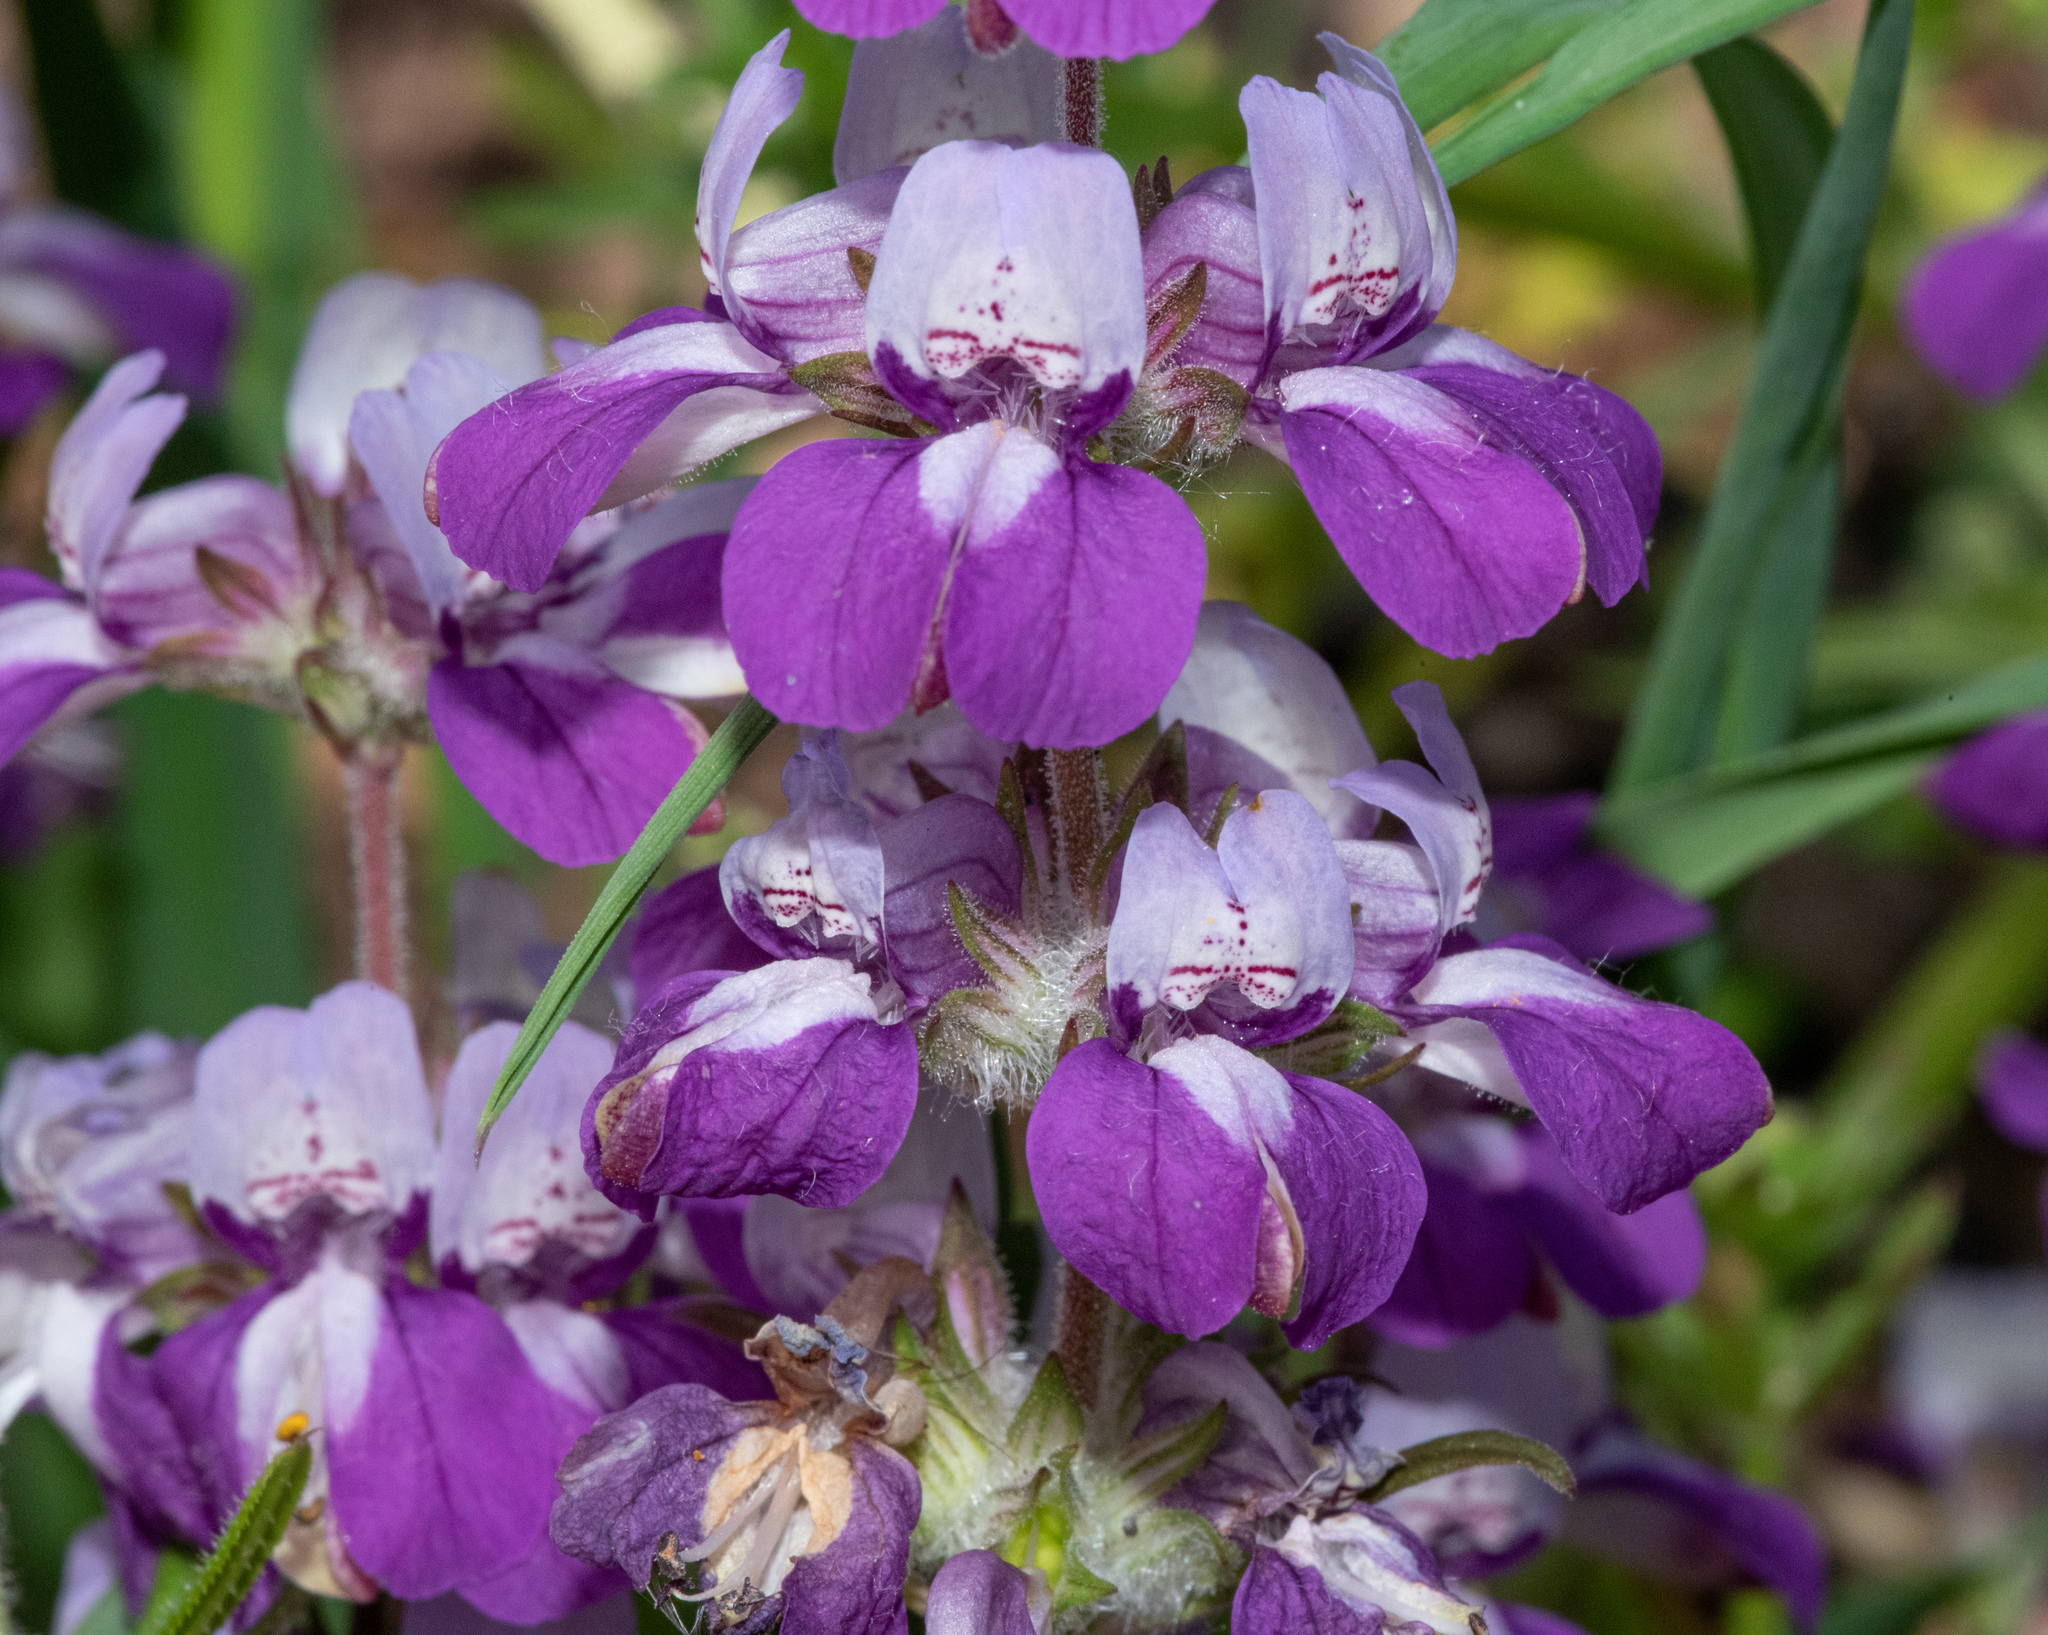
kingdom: Plantae
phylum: Tracheophyta
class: Magnoliopsida
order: Lamiales
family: Plantaginaceae
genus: Collinsia
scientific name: Collinsia heterophylla
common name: Chinese-houses
